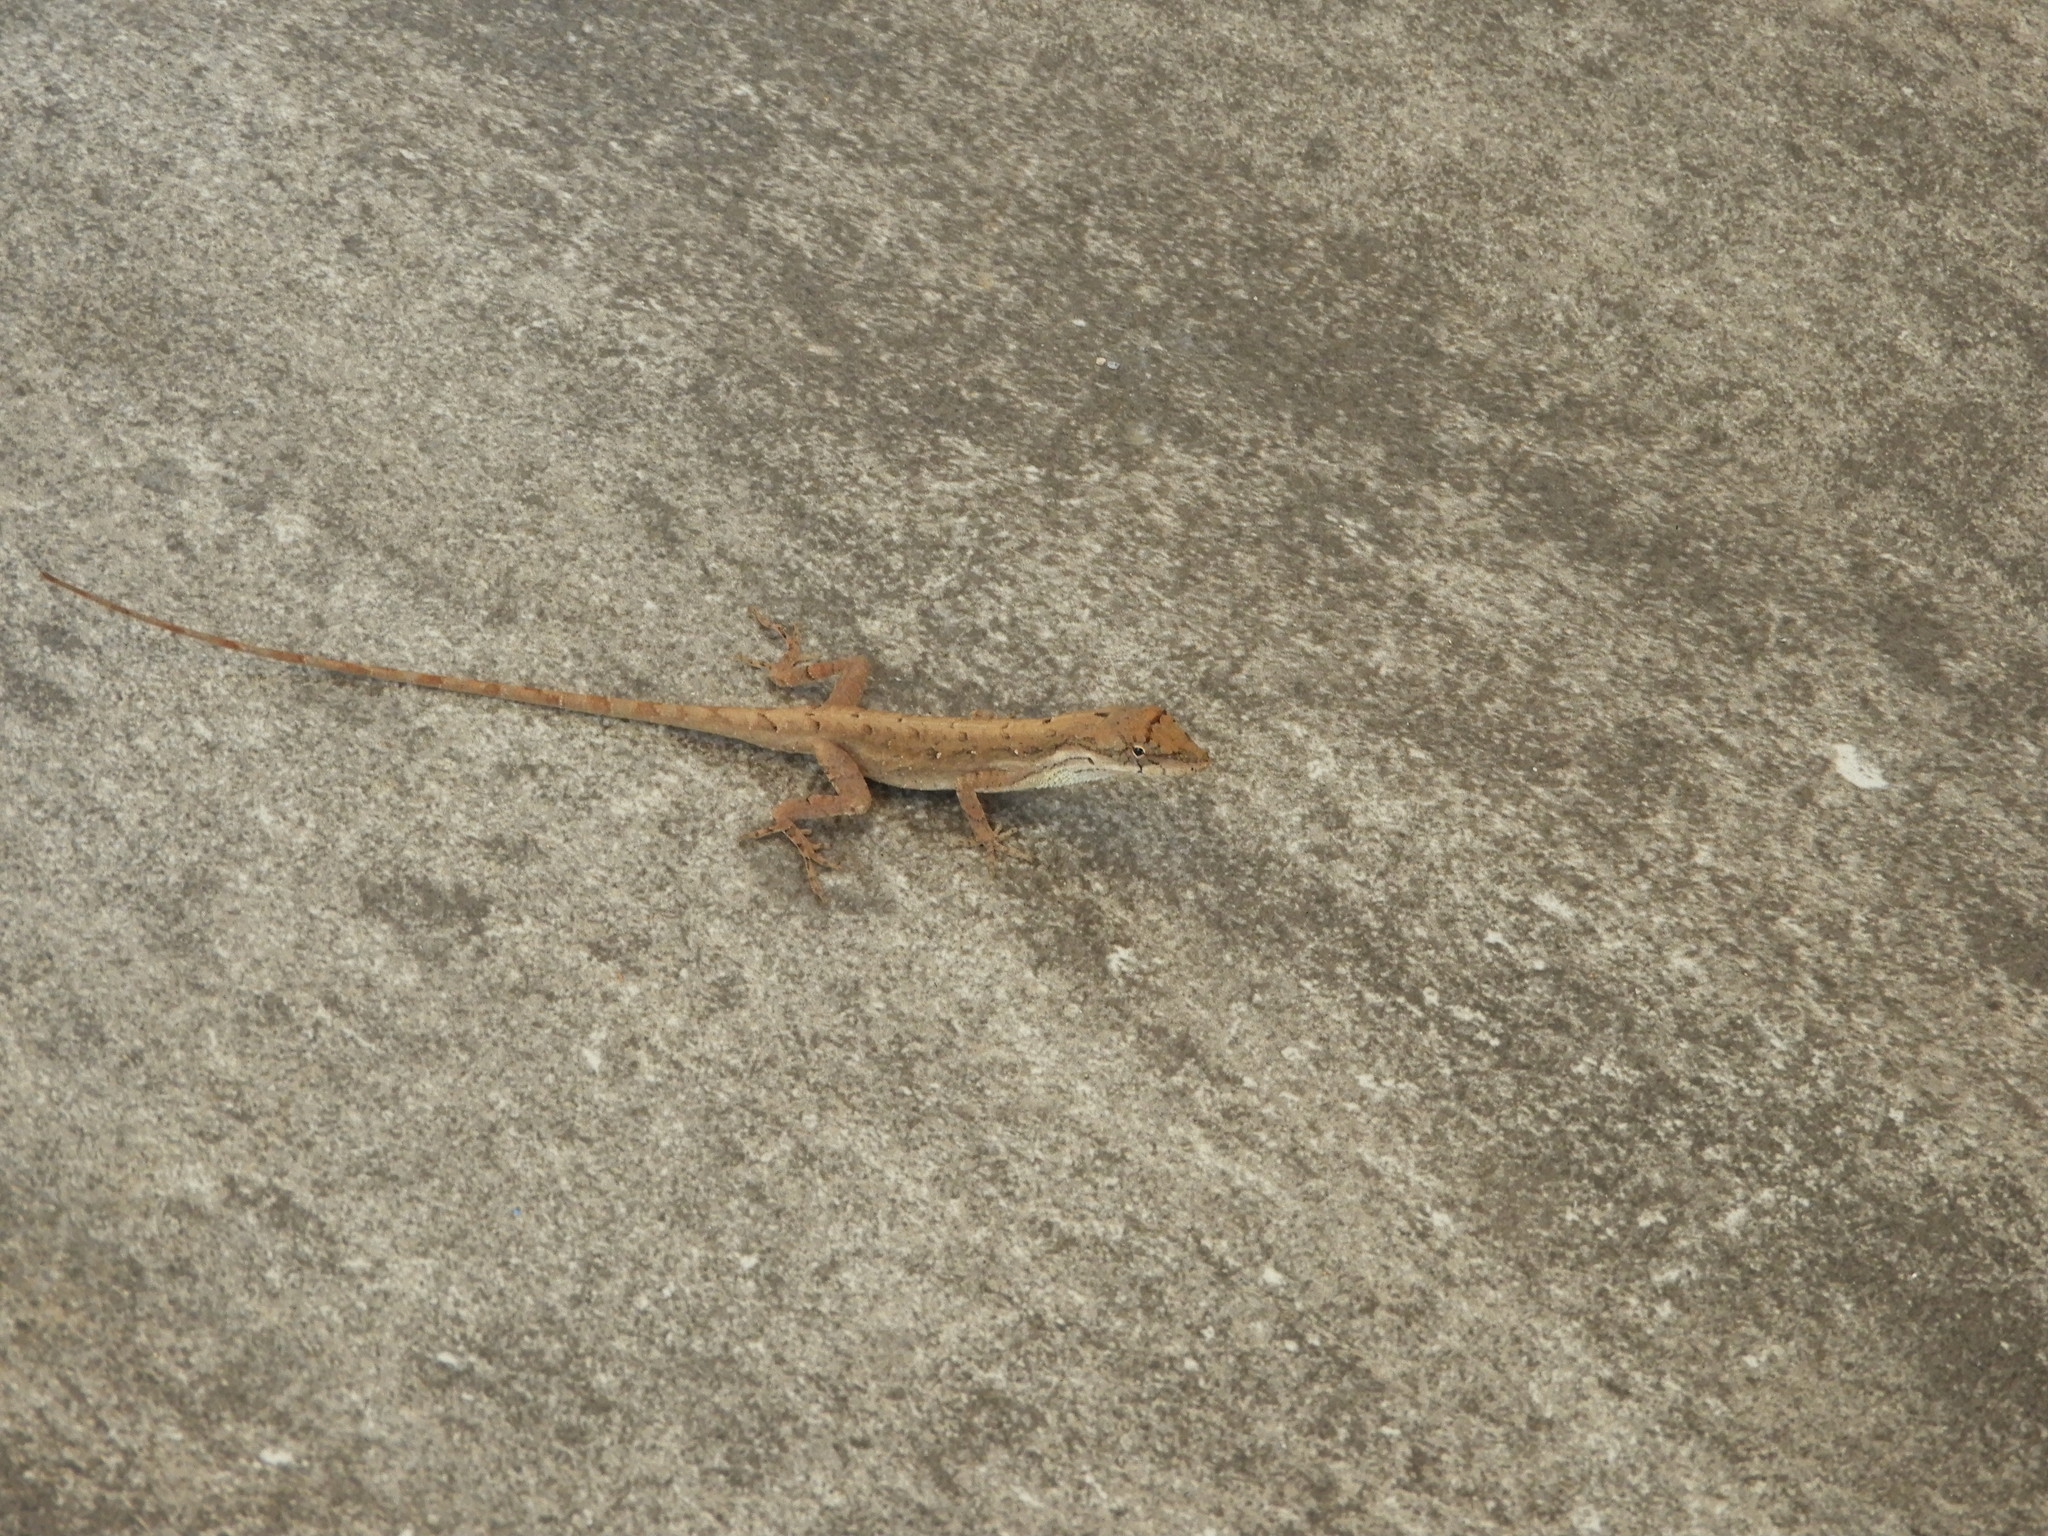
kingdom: Animalia
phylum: Chordata
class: Squamata
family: Dactyloidae
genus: Anolis
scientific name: Anolis nebulosus
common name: Clouded anole
